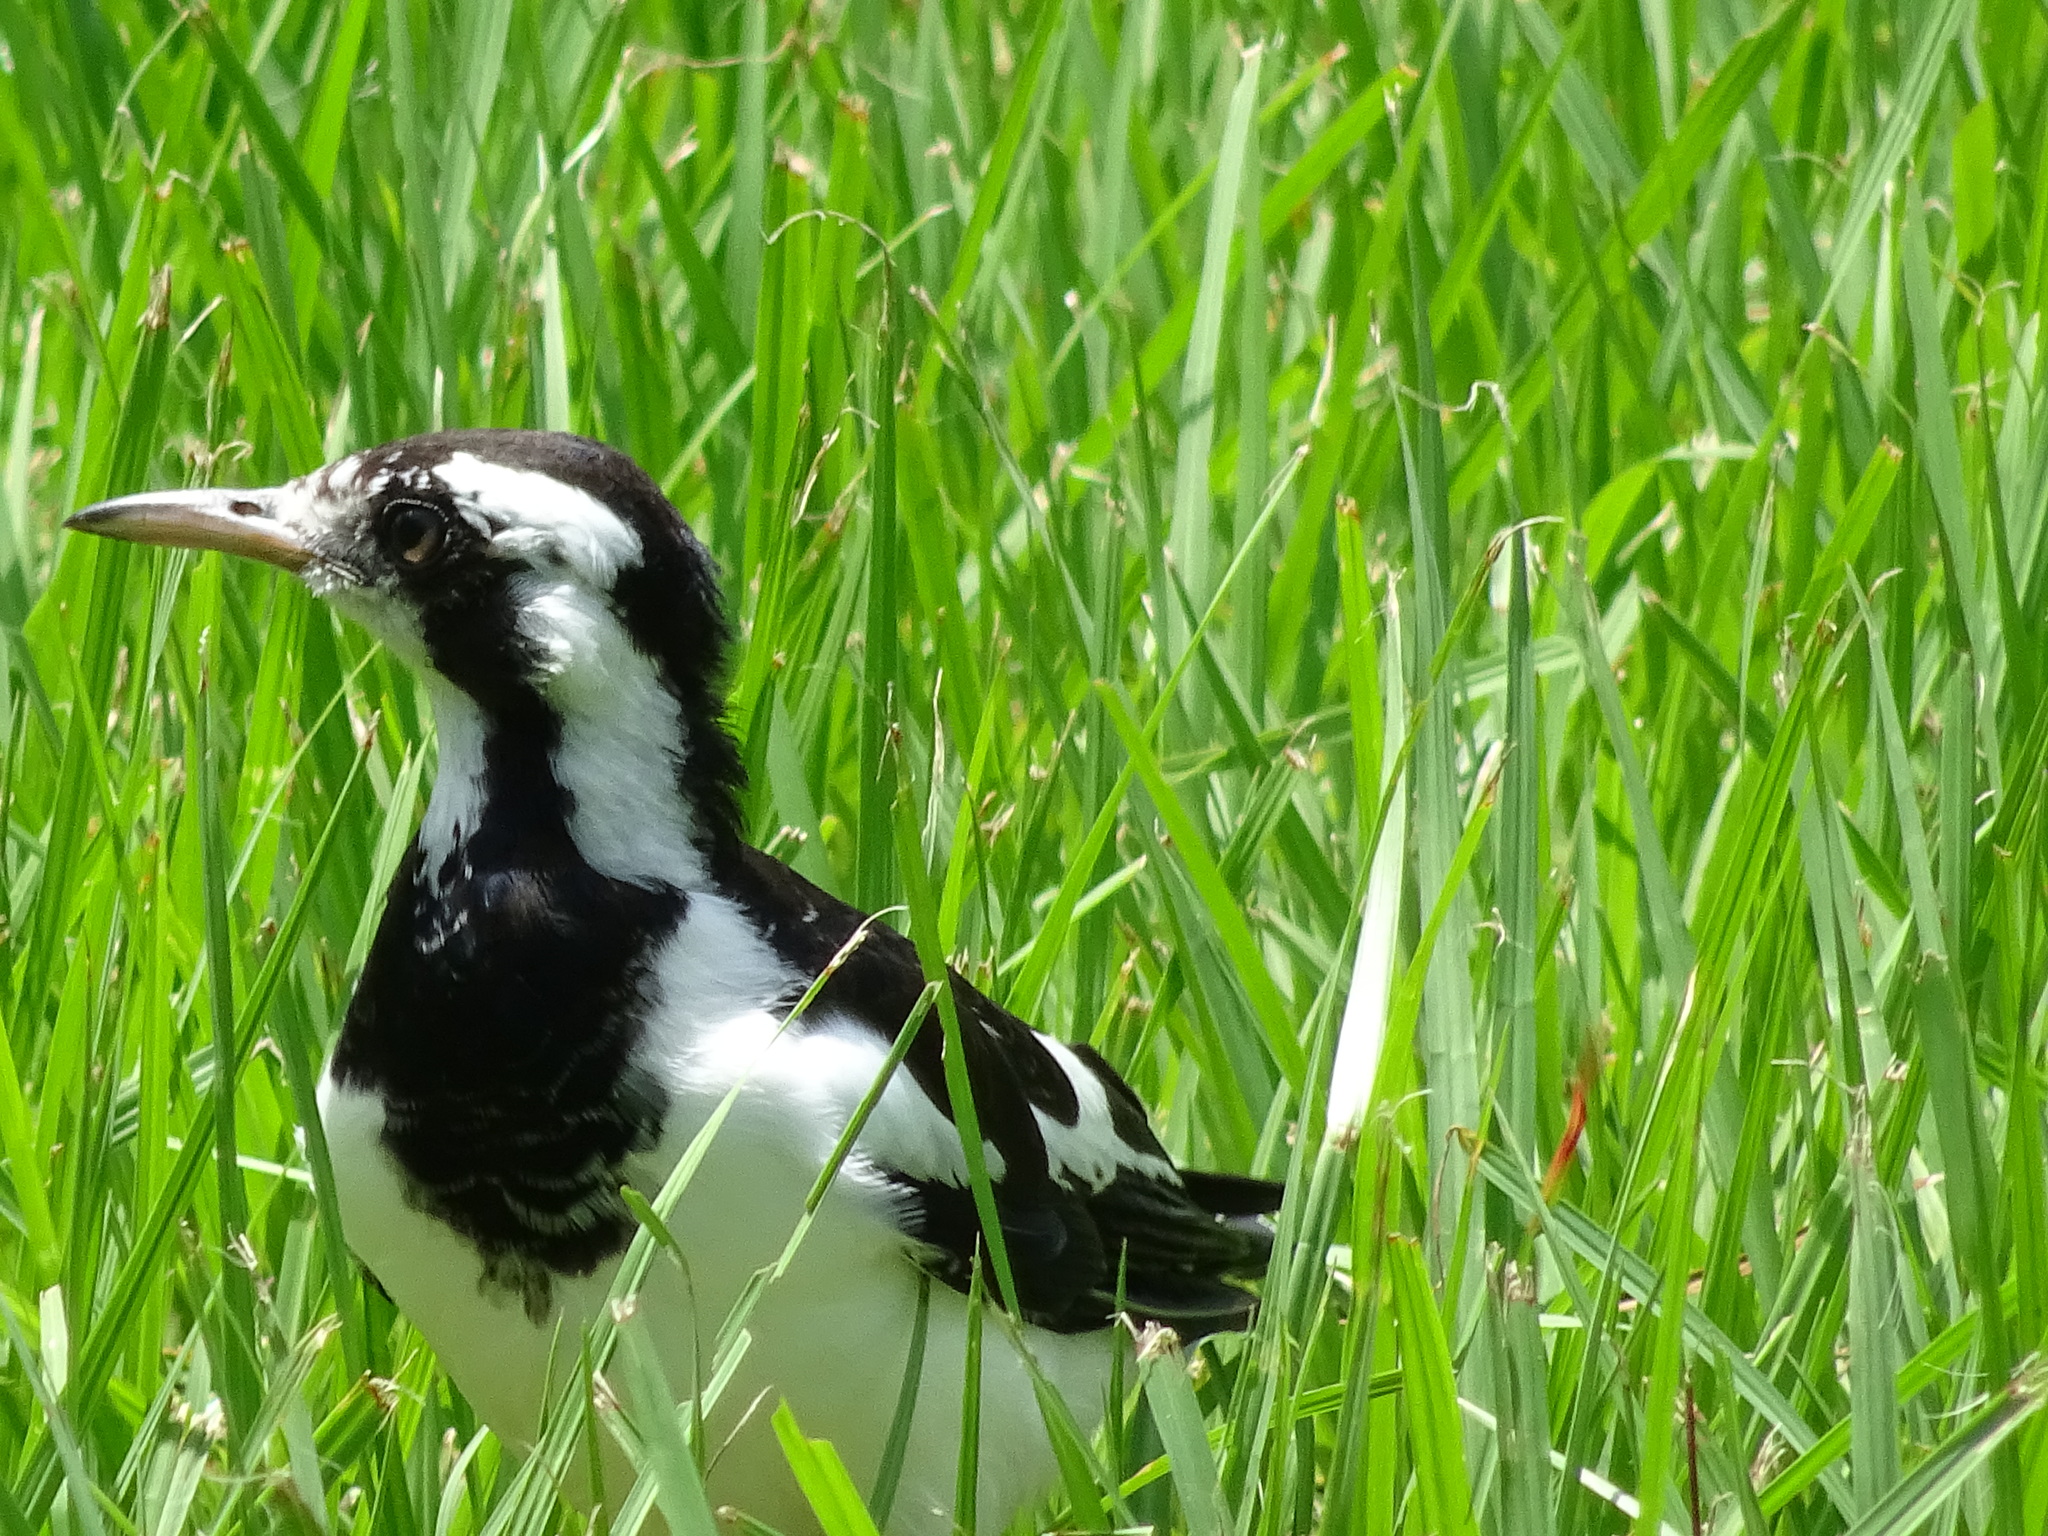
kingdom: Animalia
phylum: Chordata
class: Aves
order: Passeriformes
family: Monarchidae
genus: Grallina
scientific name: Grallina cyanoleuca
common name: Magpie-lark
